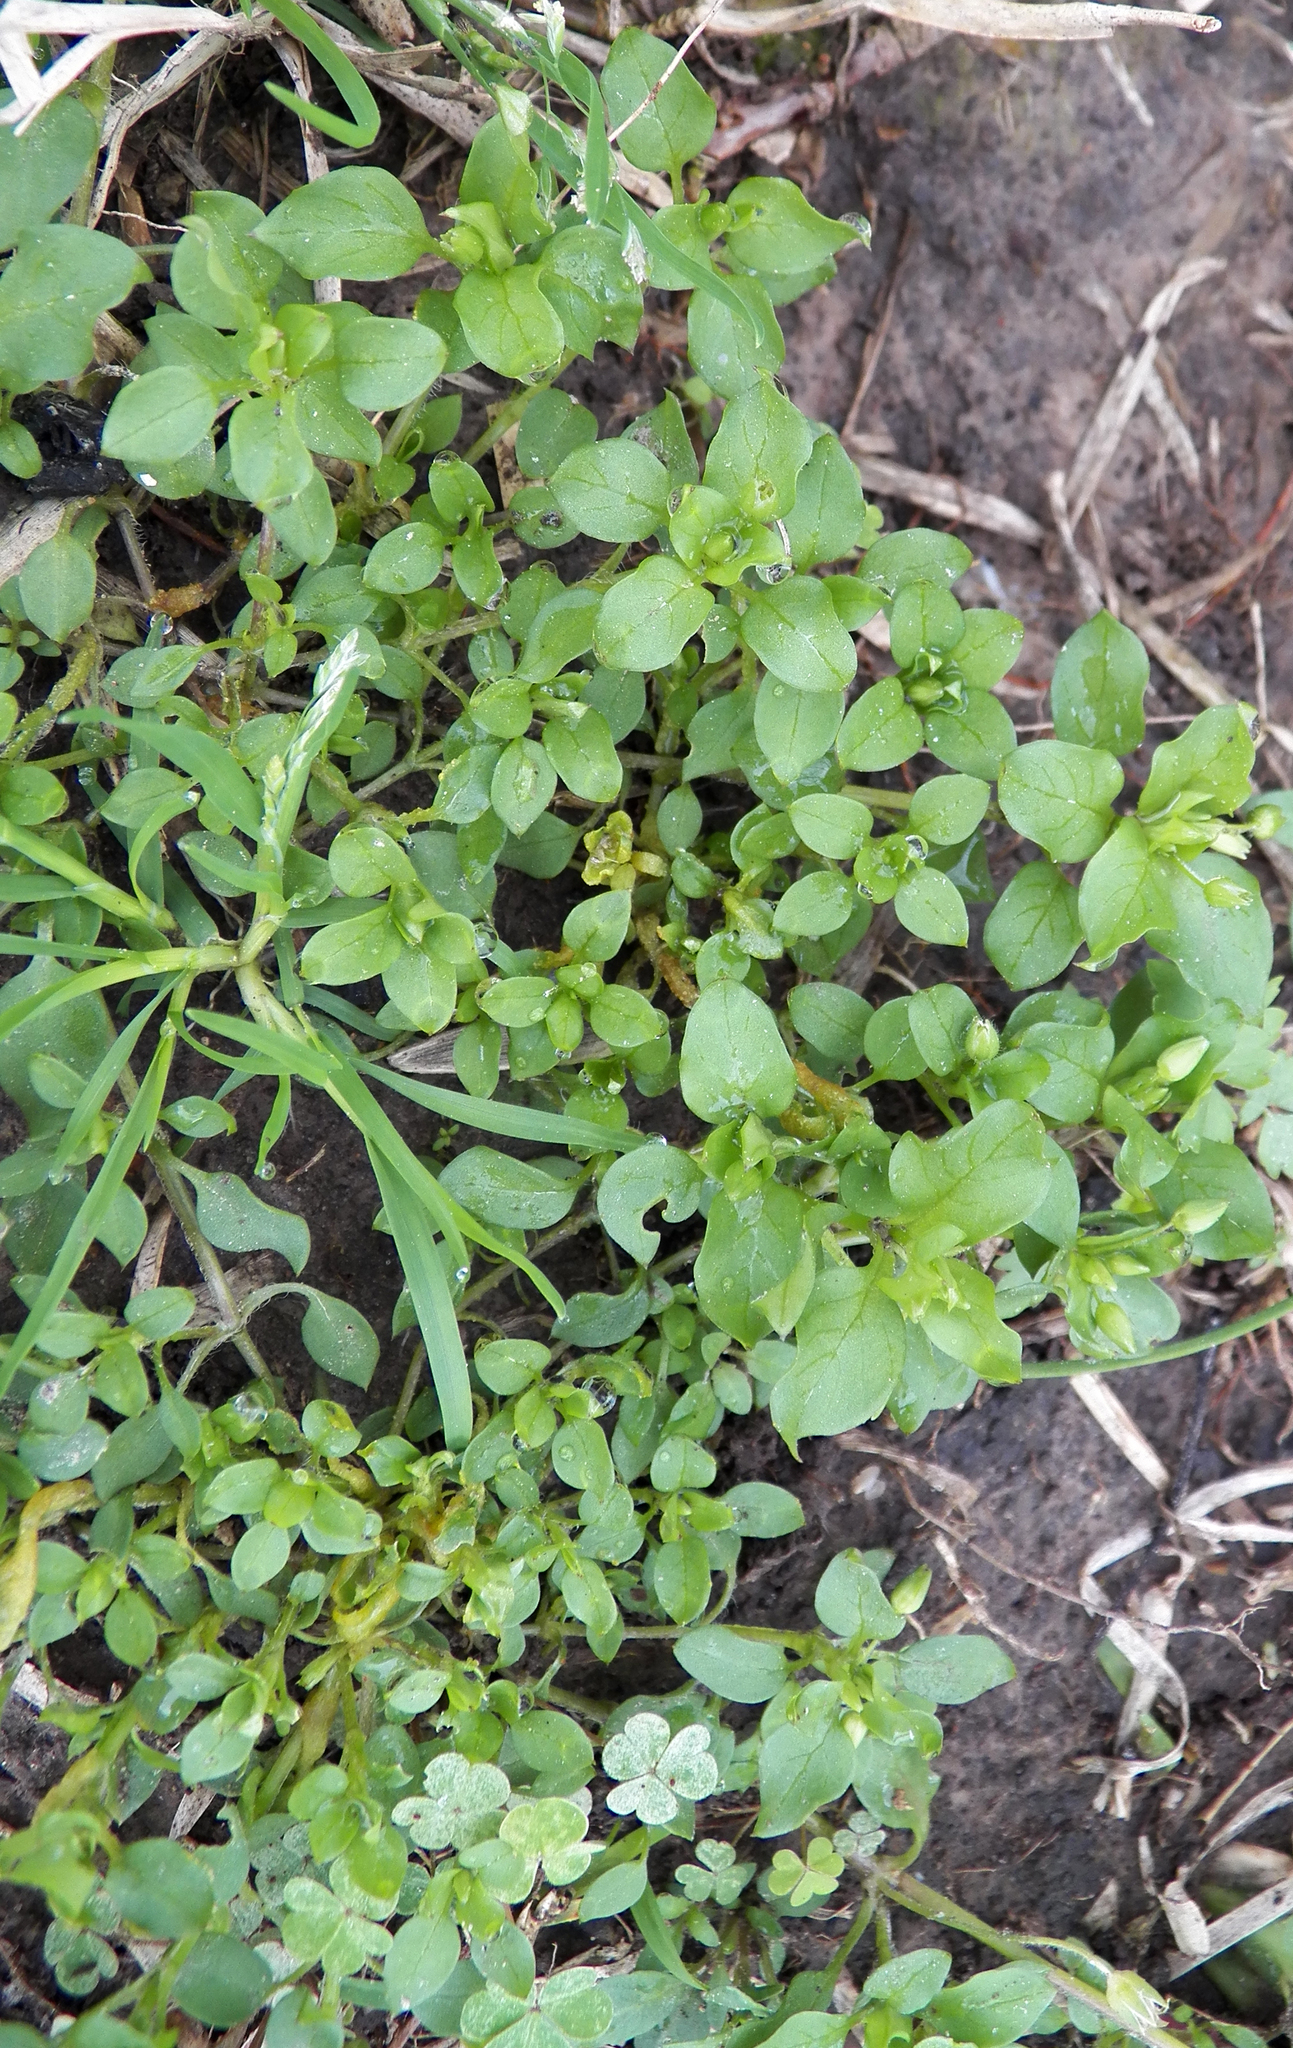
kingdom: Plantae
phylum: Tracheophyta
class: Magnoliopsida
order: Caryophyllales
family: Caryophyllaceae
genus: Stellaria
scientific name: Stellaria media
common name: Common chickweed
